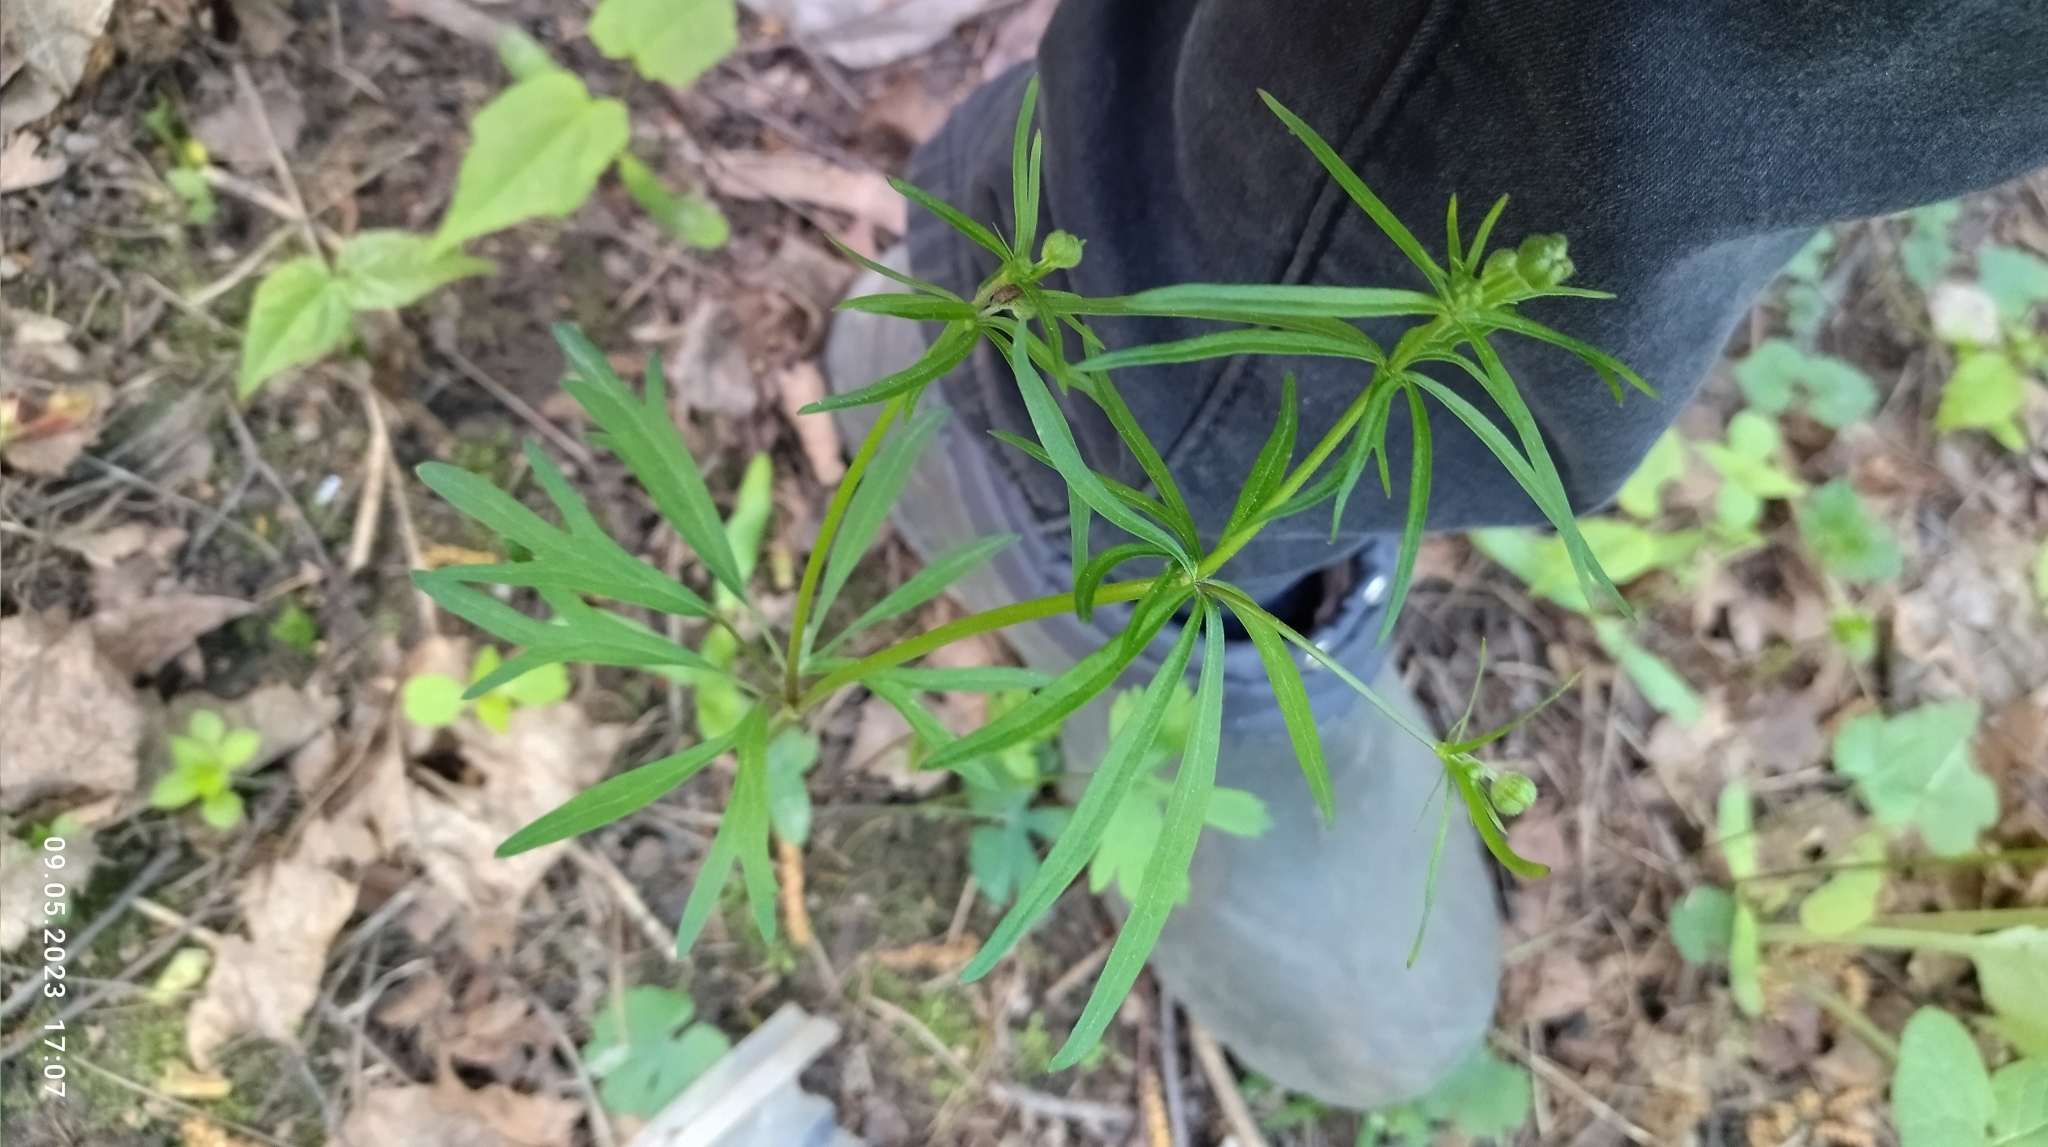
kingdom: Plantae
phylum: Tracheophyta
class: Magnoliopsida
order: Ranunculales
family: Ranunculaceae
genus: Ranunculus
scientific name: Ranunculus auricomus
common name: Goldilocks buttercup
